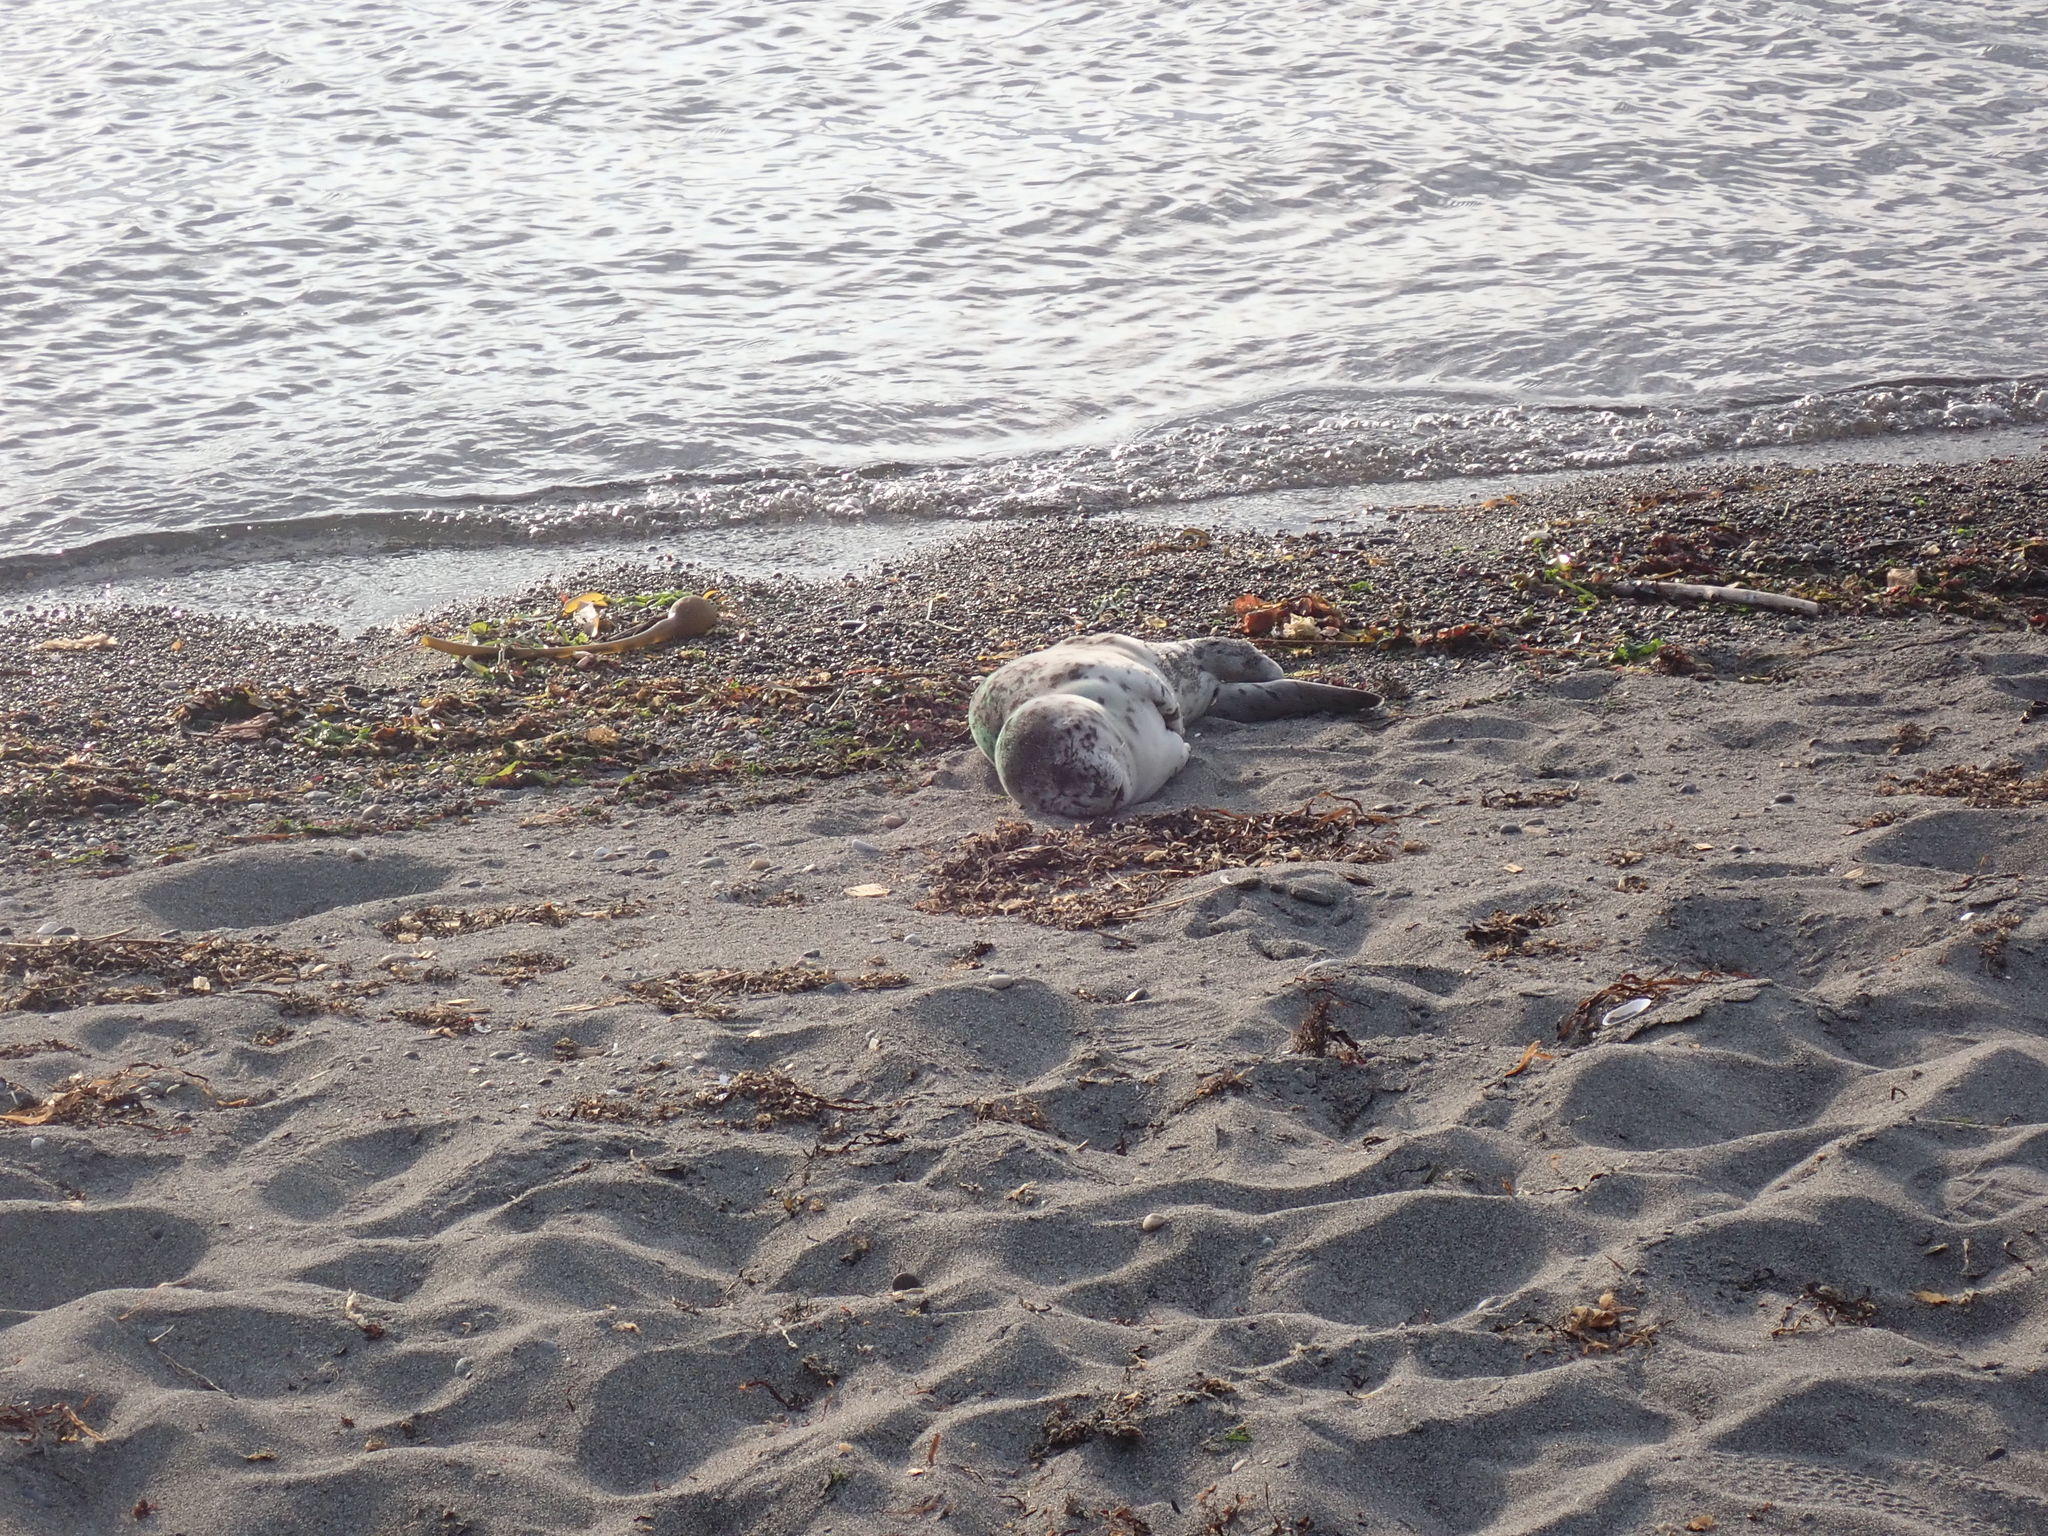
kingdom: Animalia
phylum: Chordata
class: Mammalia
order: Carnivora
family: Phocidae
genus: Phoca
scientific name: Phoca vitulina
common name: Harbor seal
